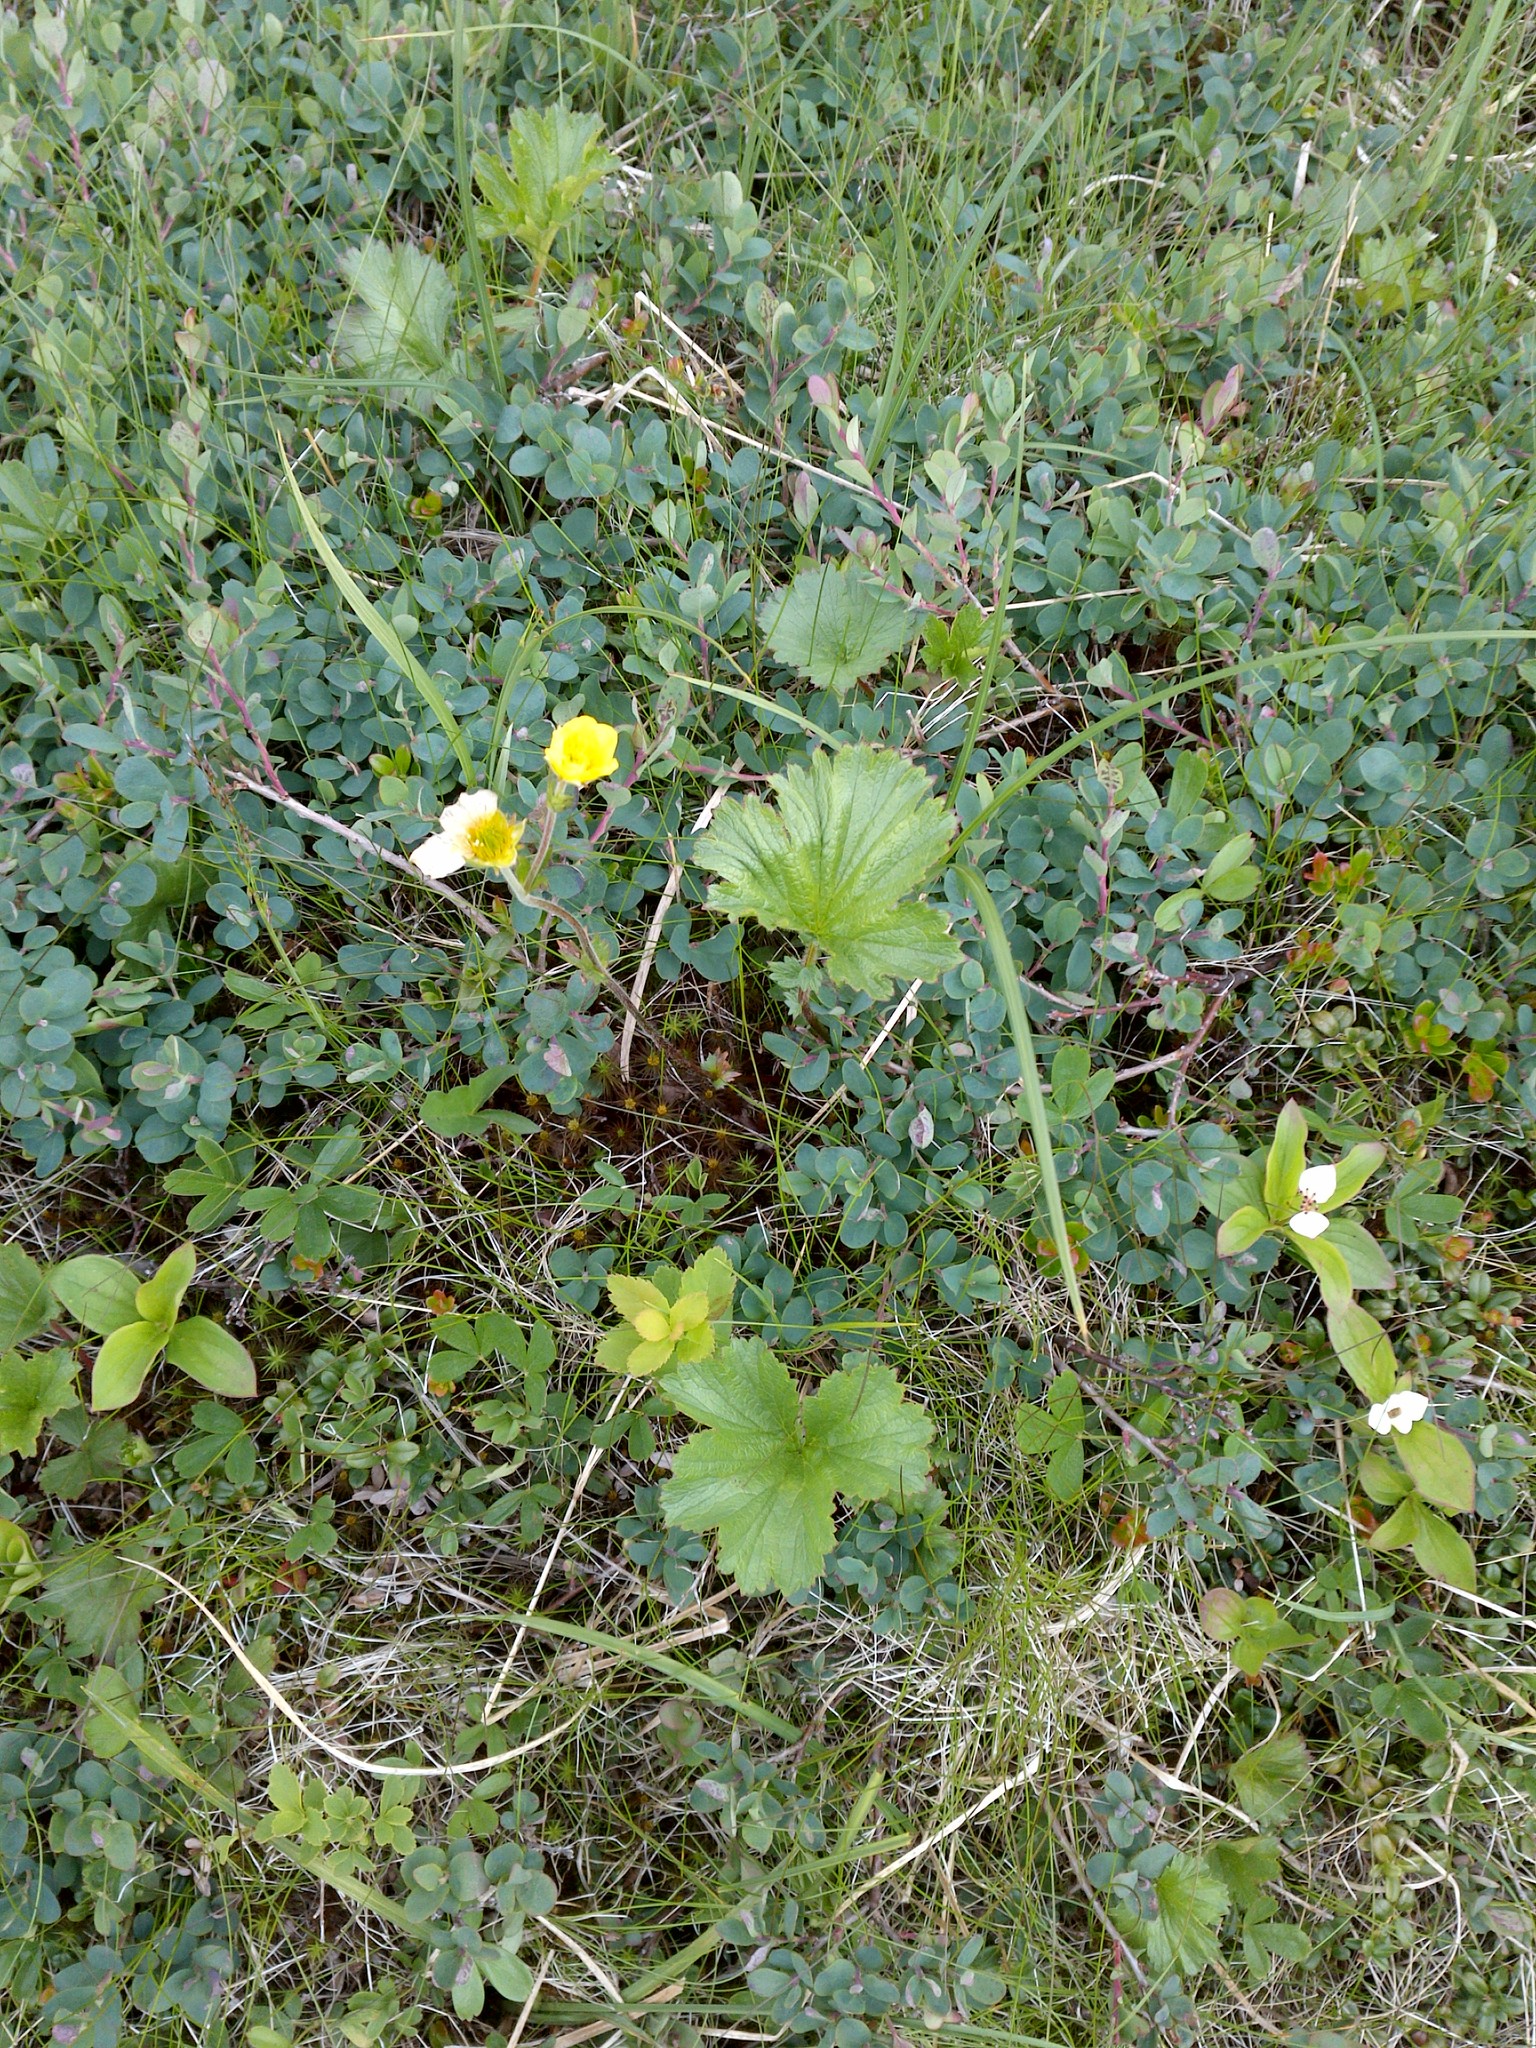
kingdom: Plantae
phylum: Tracheophyta
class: Magnoliopsida
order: Rosales
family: Rosaceae
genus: Geum
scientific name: Geum peckii
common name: Eastern mountain avens
